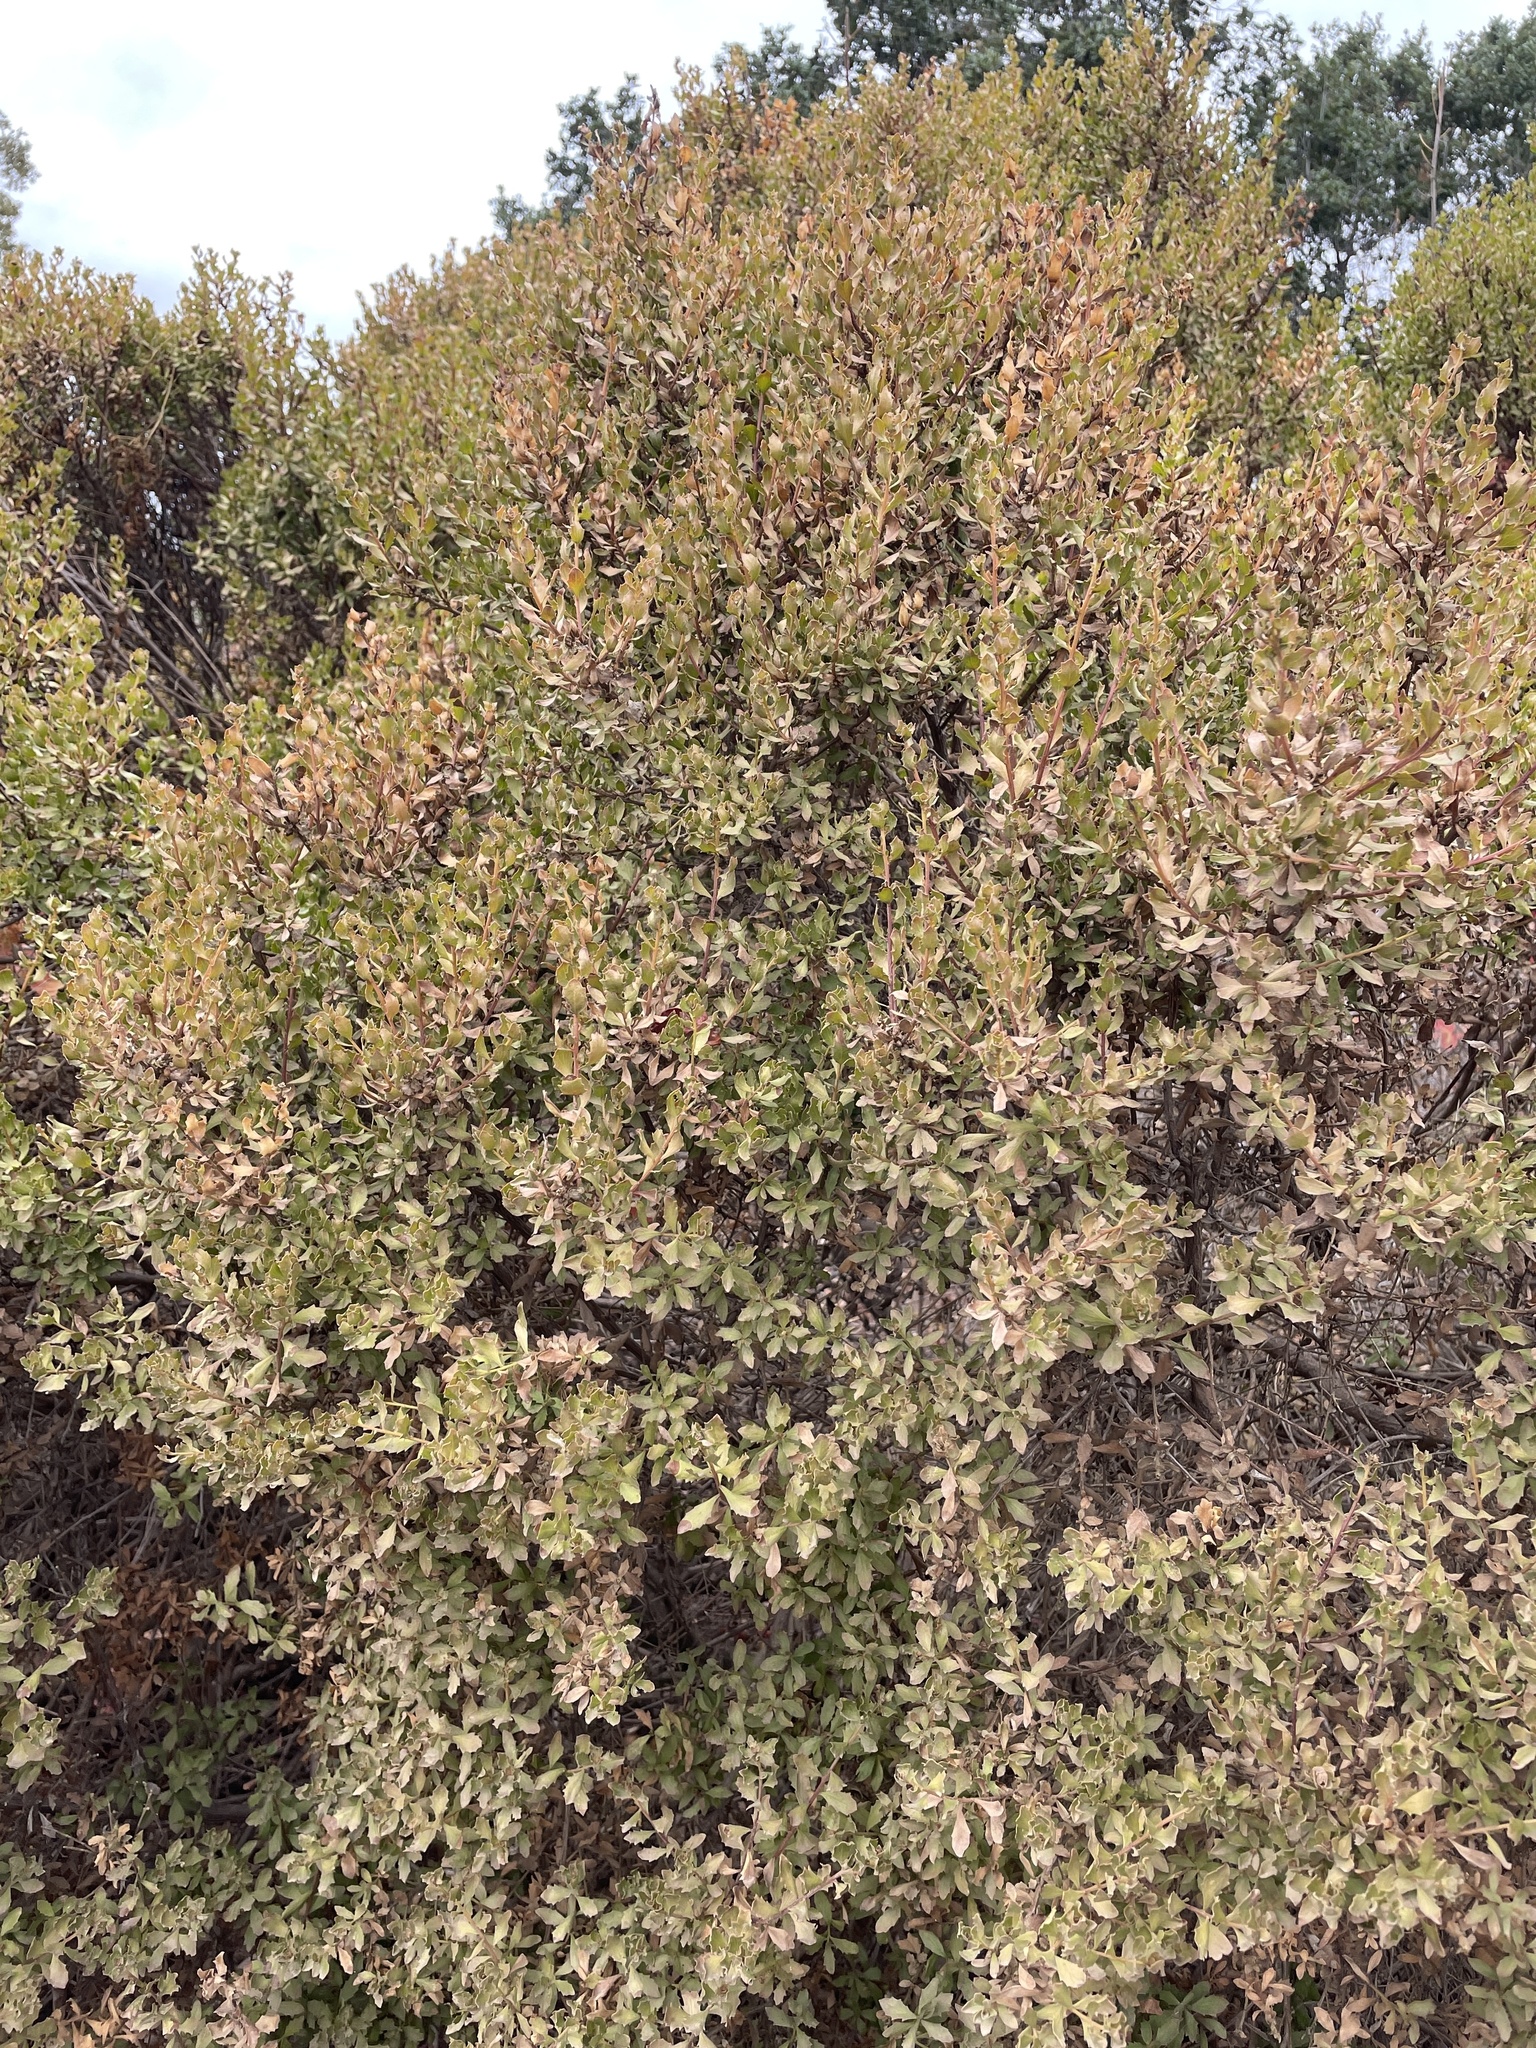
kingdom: Plantae
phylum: Tracheophyta
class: Magnoliopsida
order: Asterales
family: Asteraceae
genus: Baccharis
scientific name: Baccharis pilularis
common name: Coyotebrush
